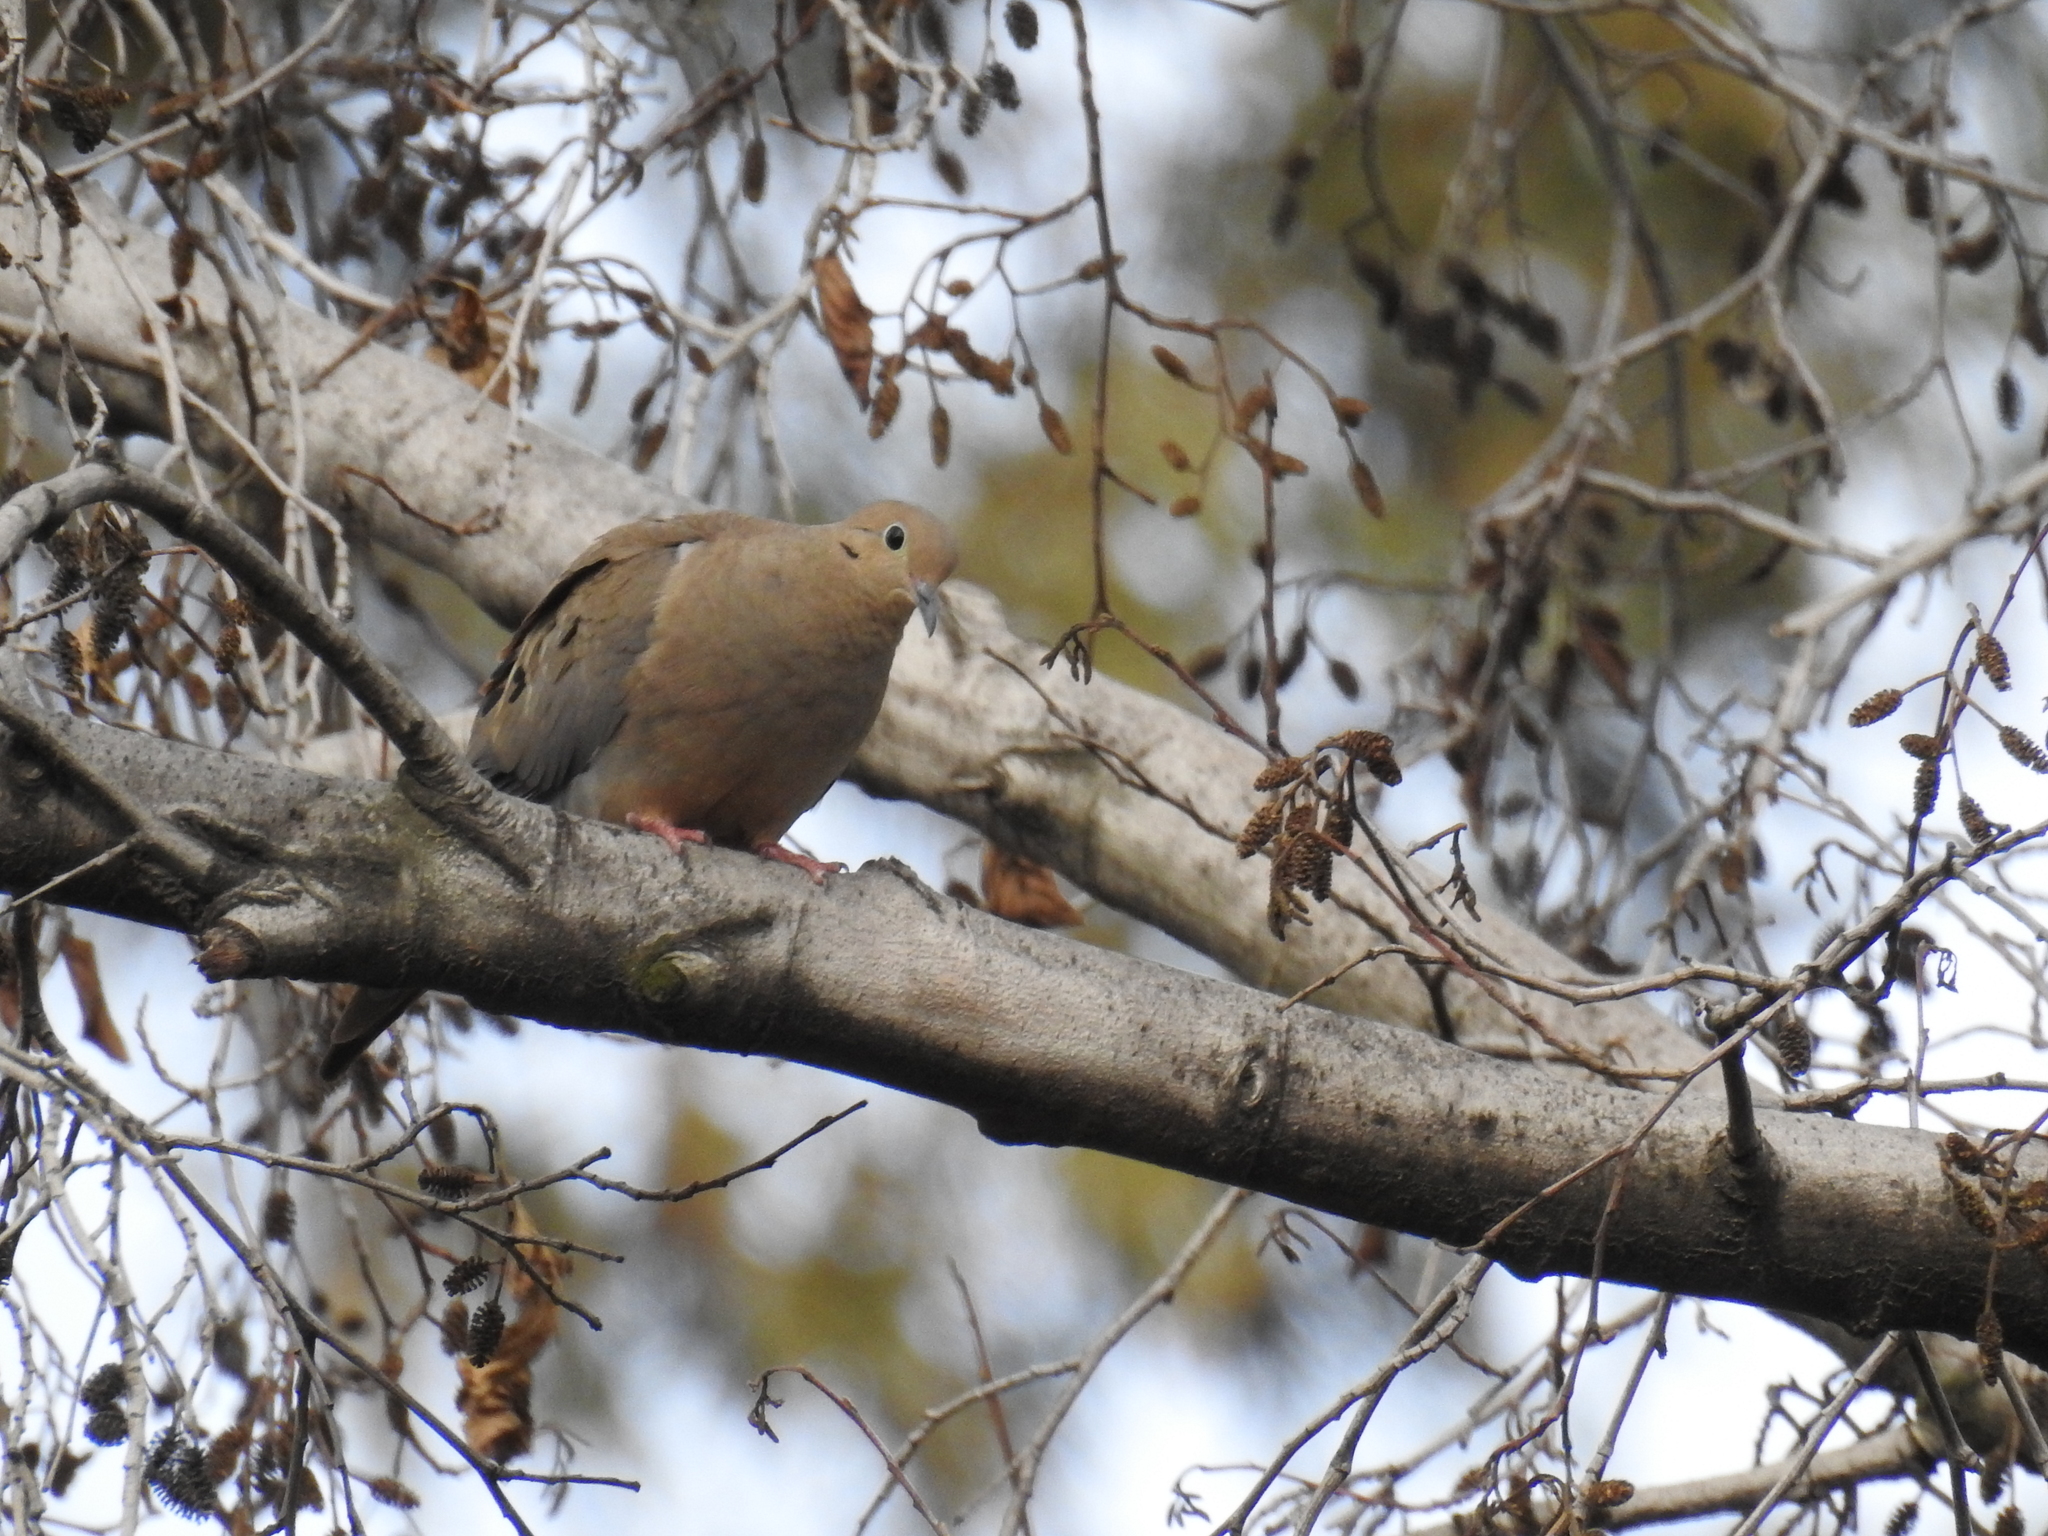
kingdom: Animalia
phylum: Chordata
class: Aves
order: Columbiformes
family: Columbidae
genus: Zenaida
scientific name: Zenaida macroura
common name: Mourning dove
